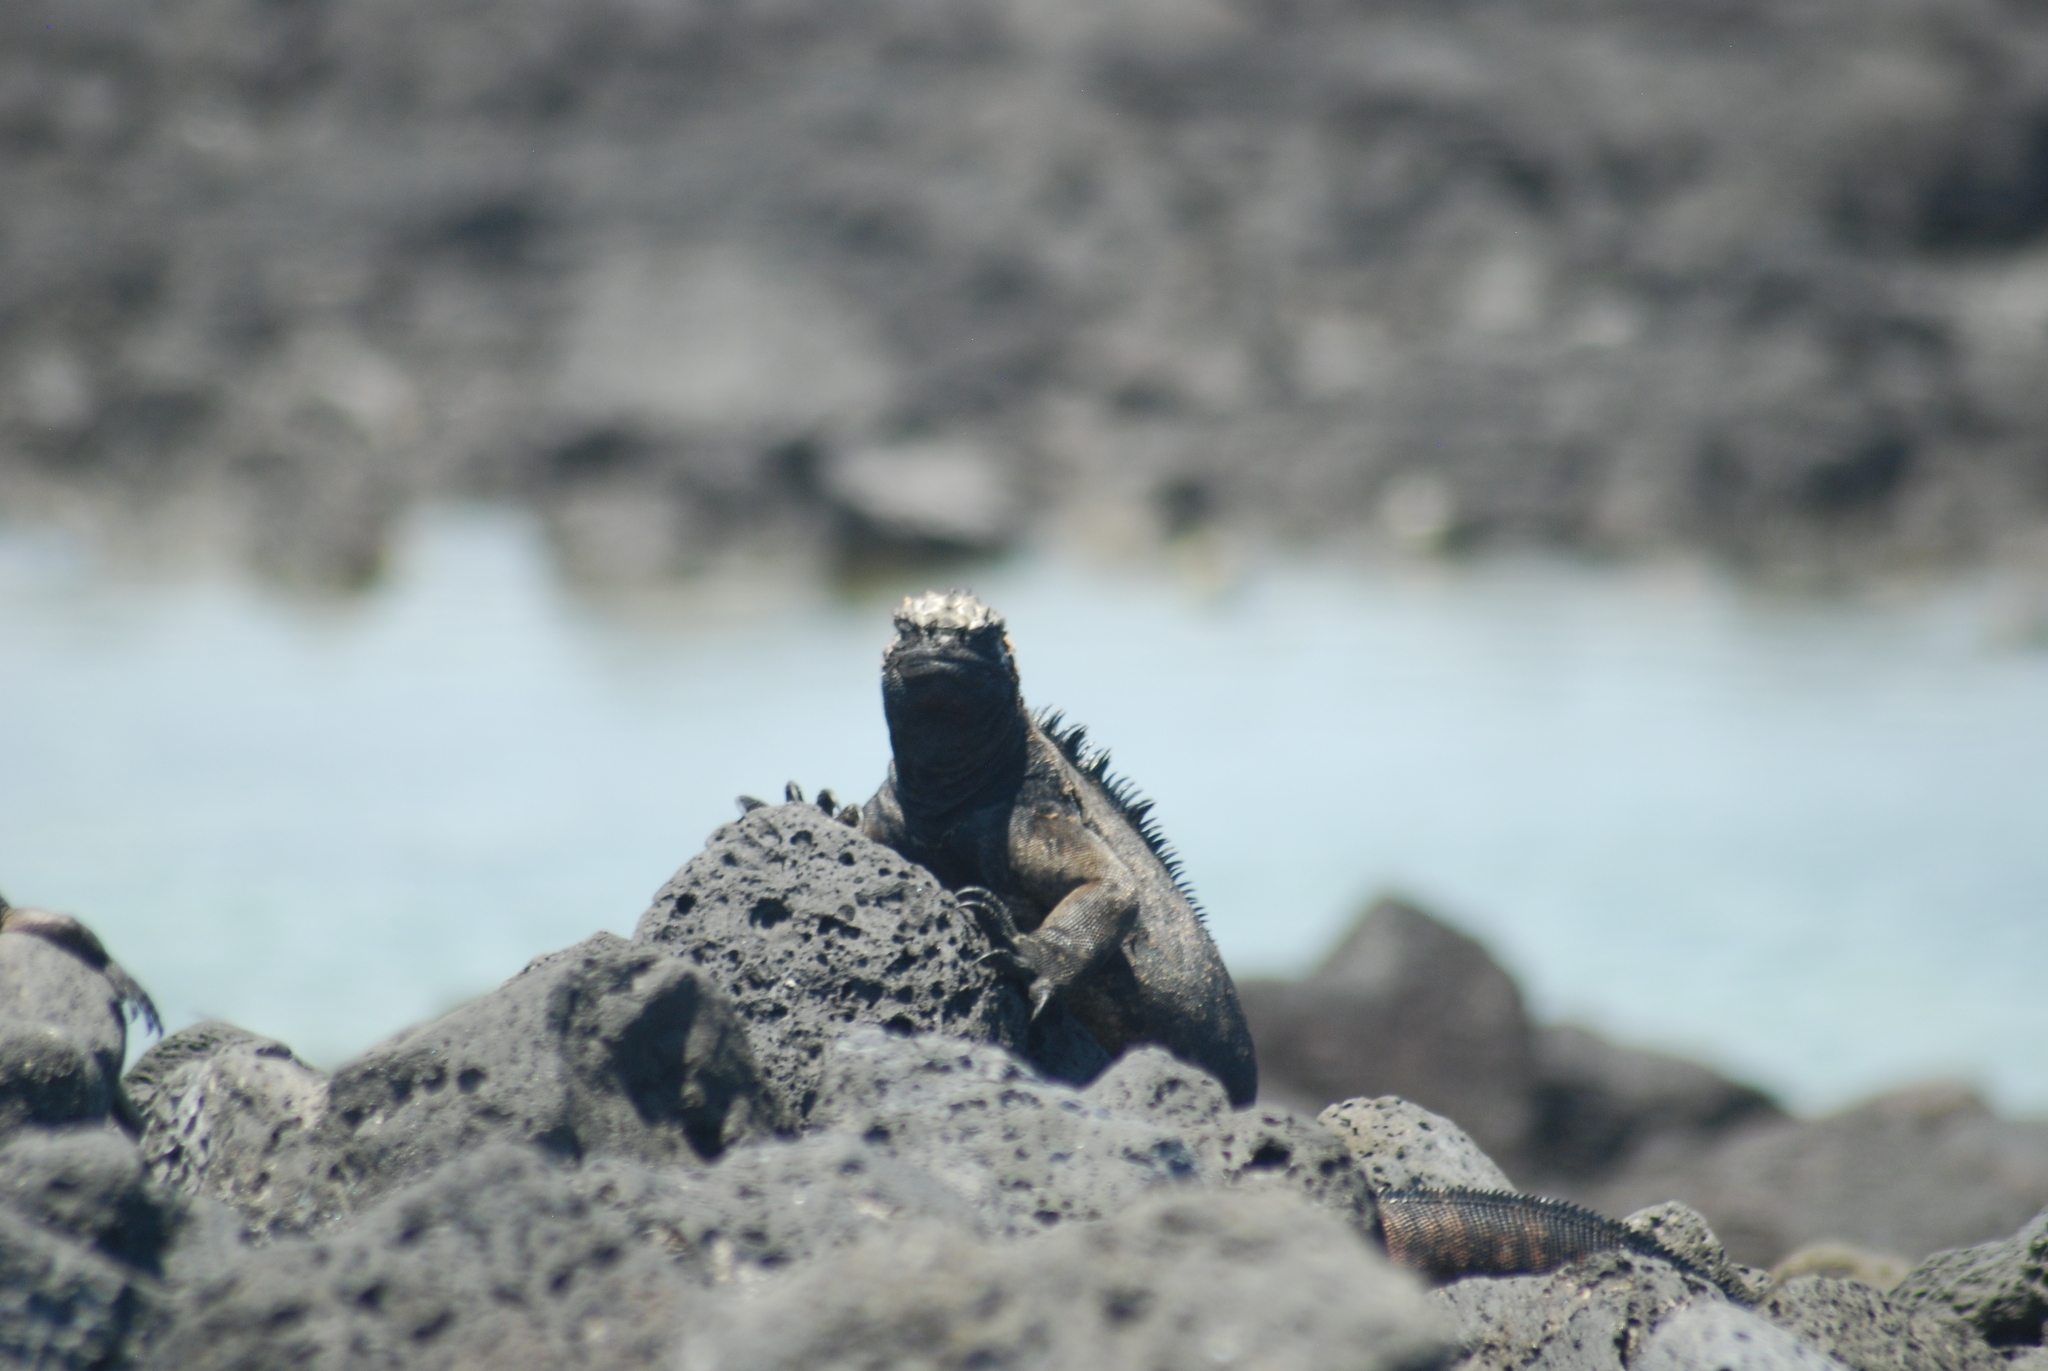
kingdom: Animalia
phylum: Chordata
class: Squamata
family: Iguanidae
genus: Amblyrhynchus
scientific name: Amblyrhynchus cristatus
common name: Marine iguana
